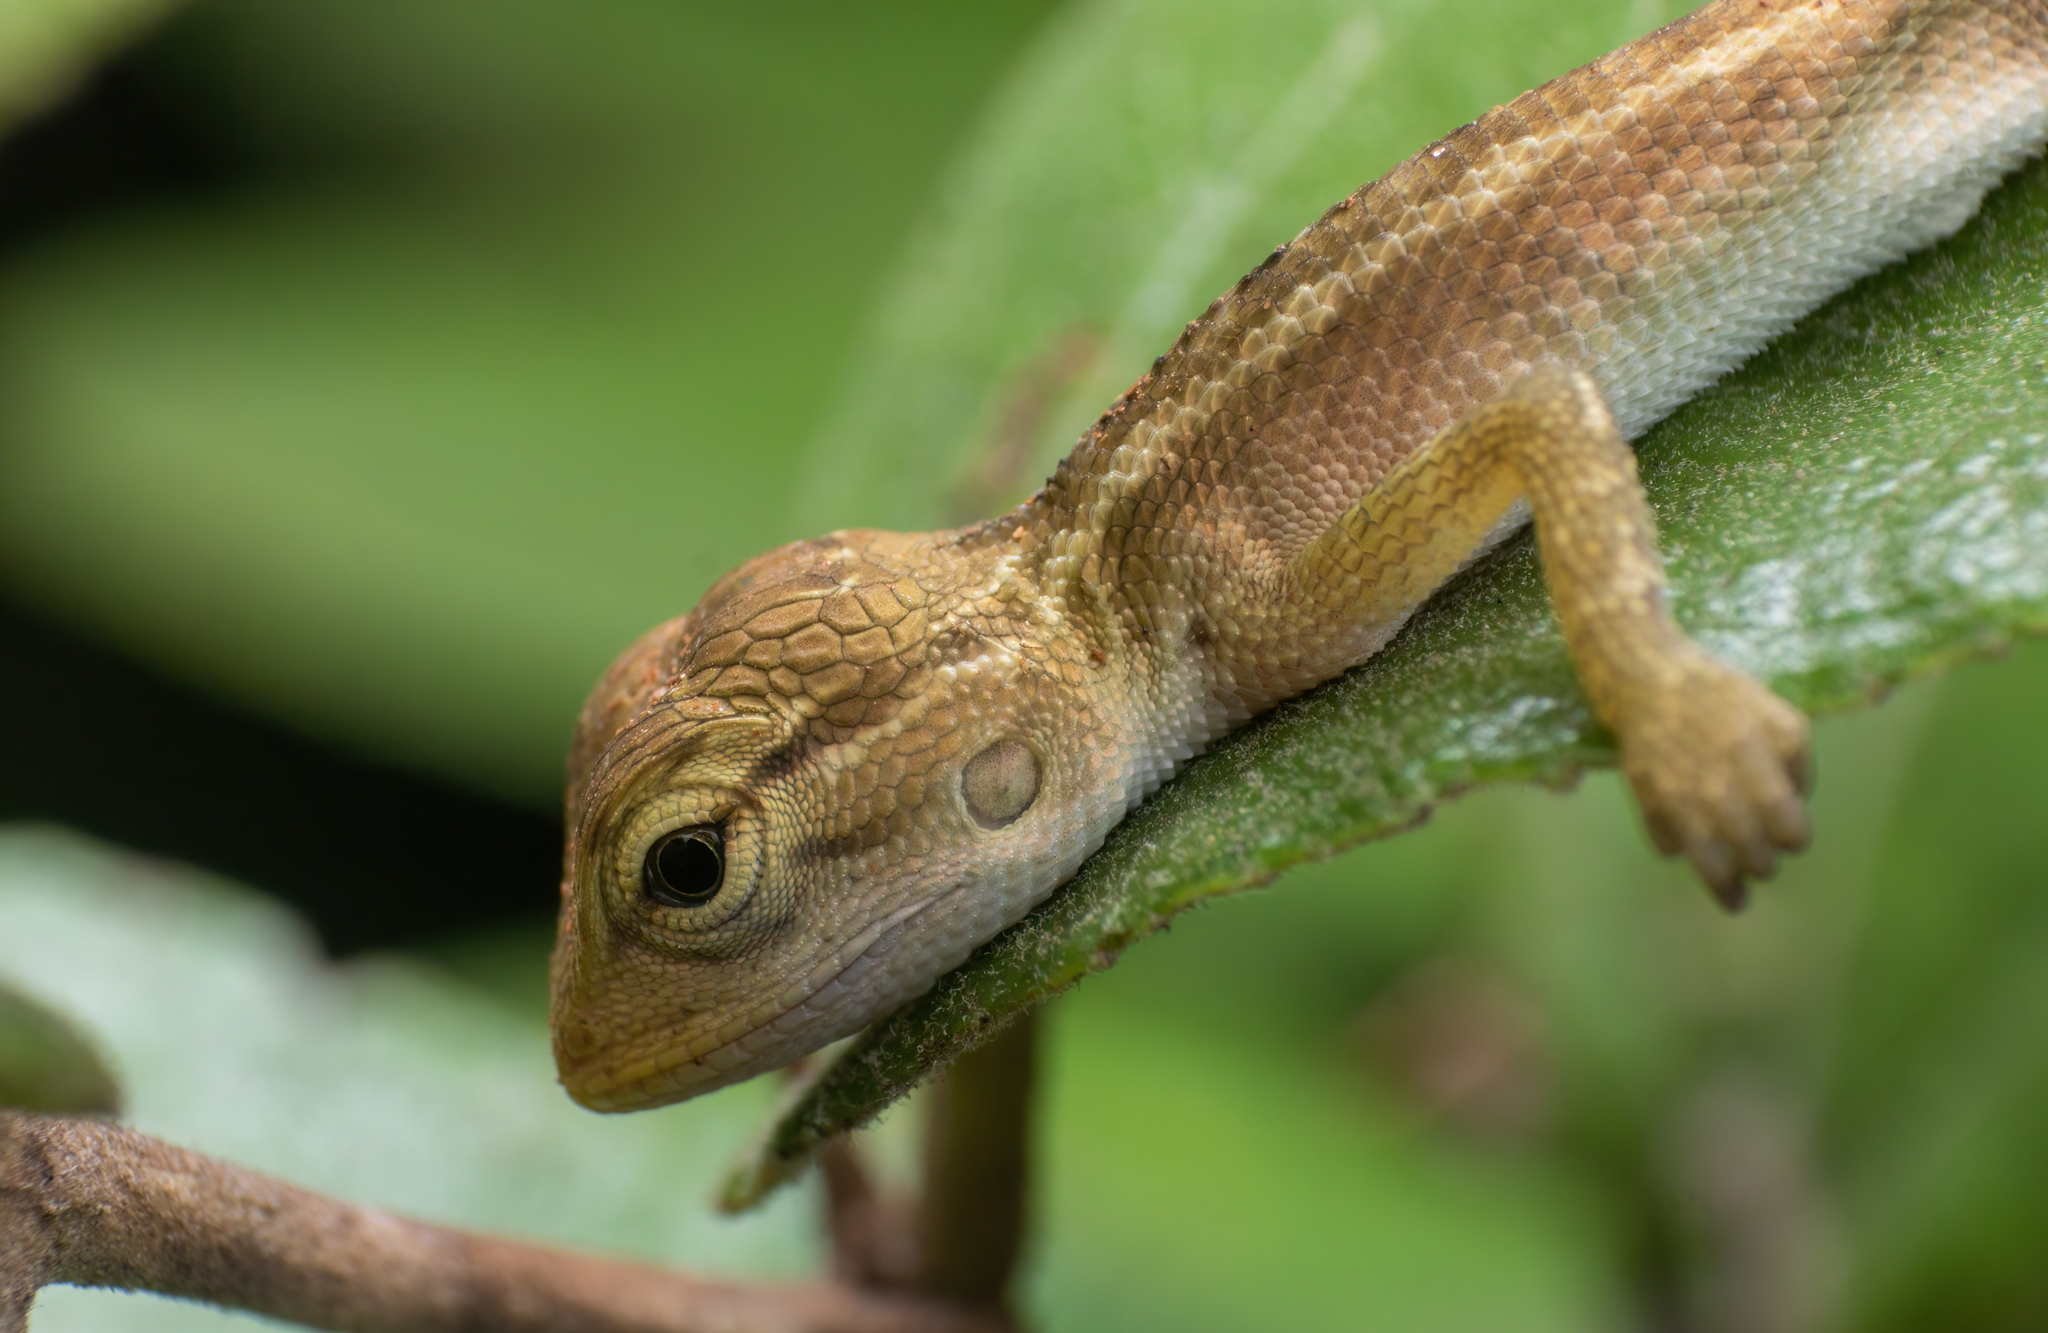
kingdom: Animalia
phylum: Chordata
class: Squamata
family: Agamidae
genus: Calotes
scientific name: Calotes versicolor
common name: Oriental garden lizard
